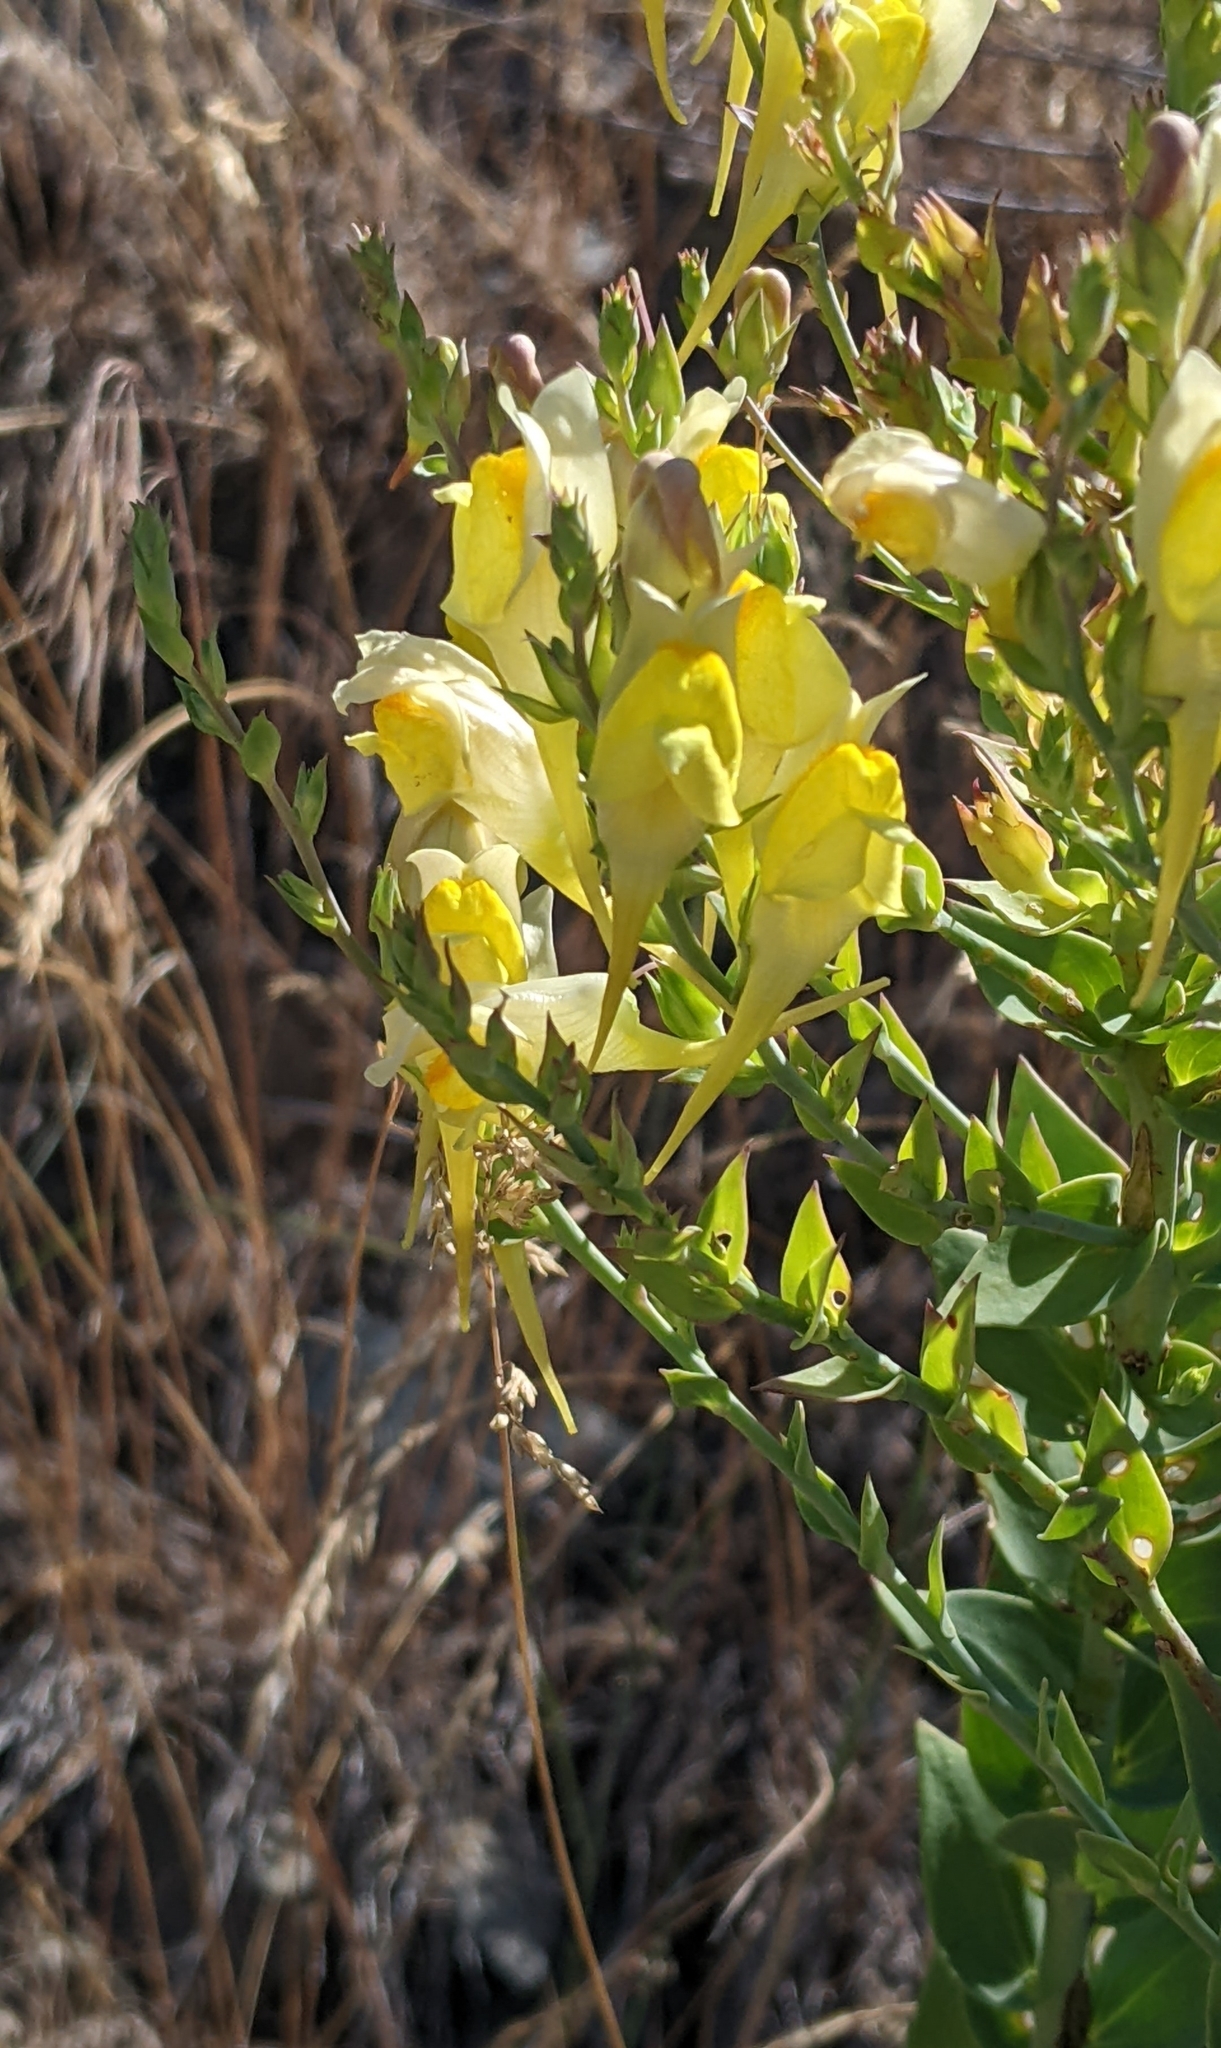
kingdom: Plantae
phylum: Tracheophyta
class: Magnoliopsida
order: Lamiales
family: Plantaginaceae
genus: Linaria
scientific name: Linaria dalmatica
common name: Dalmatian toadflax
